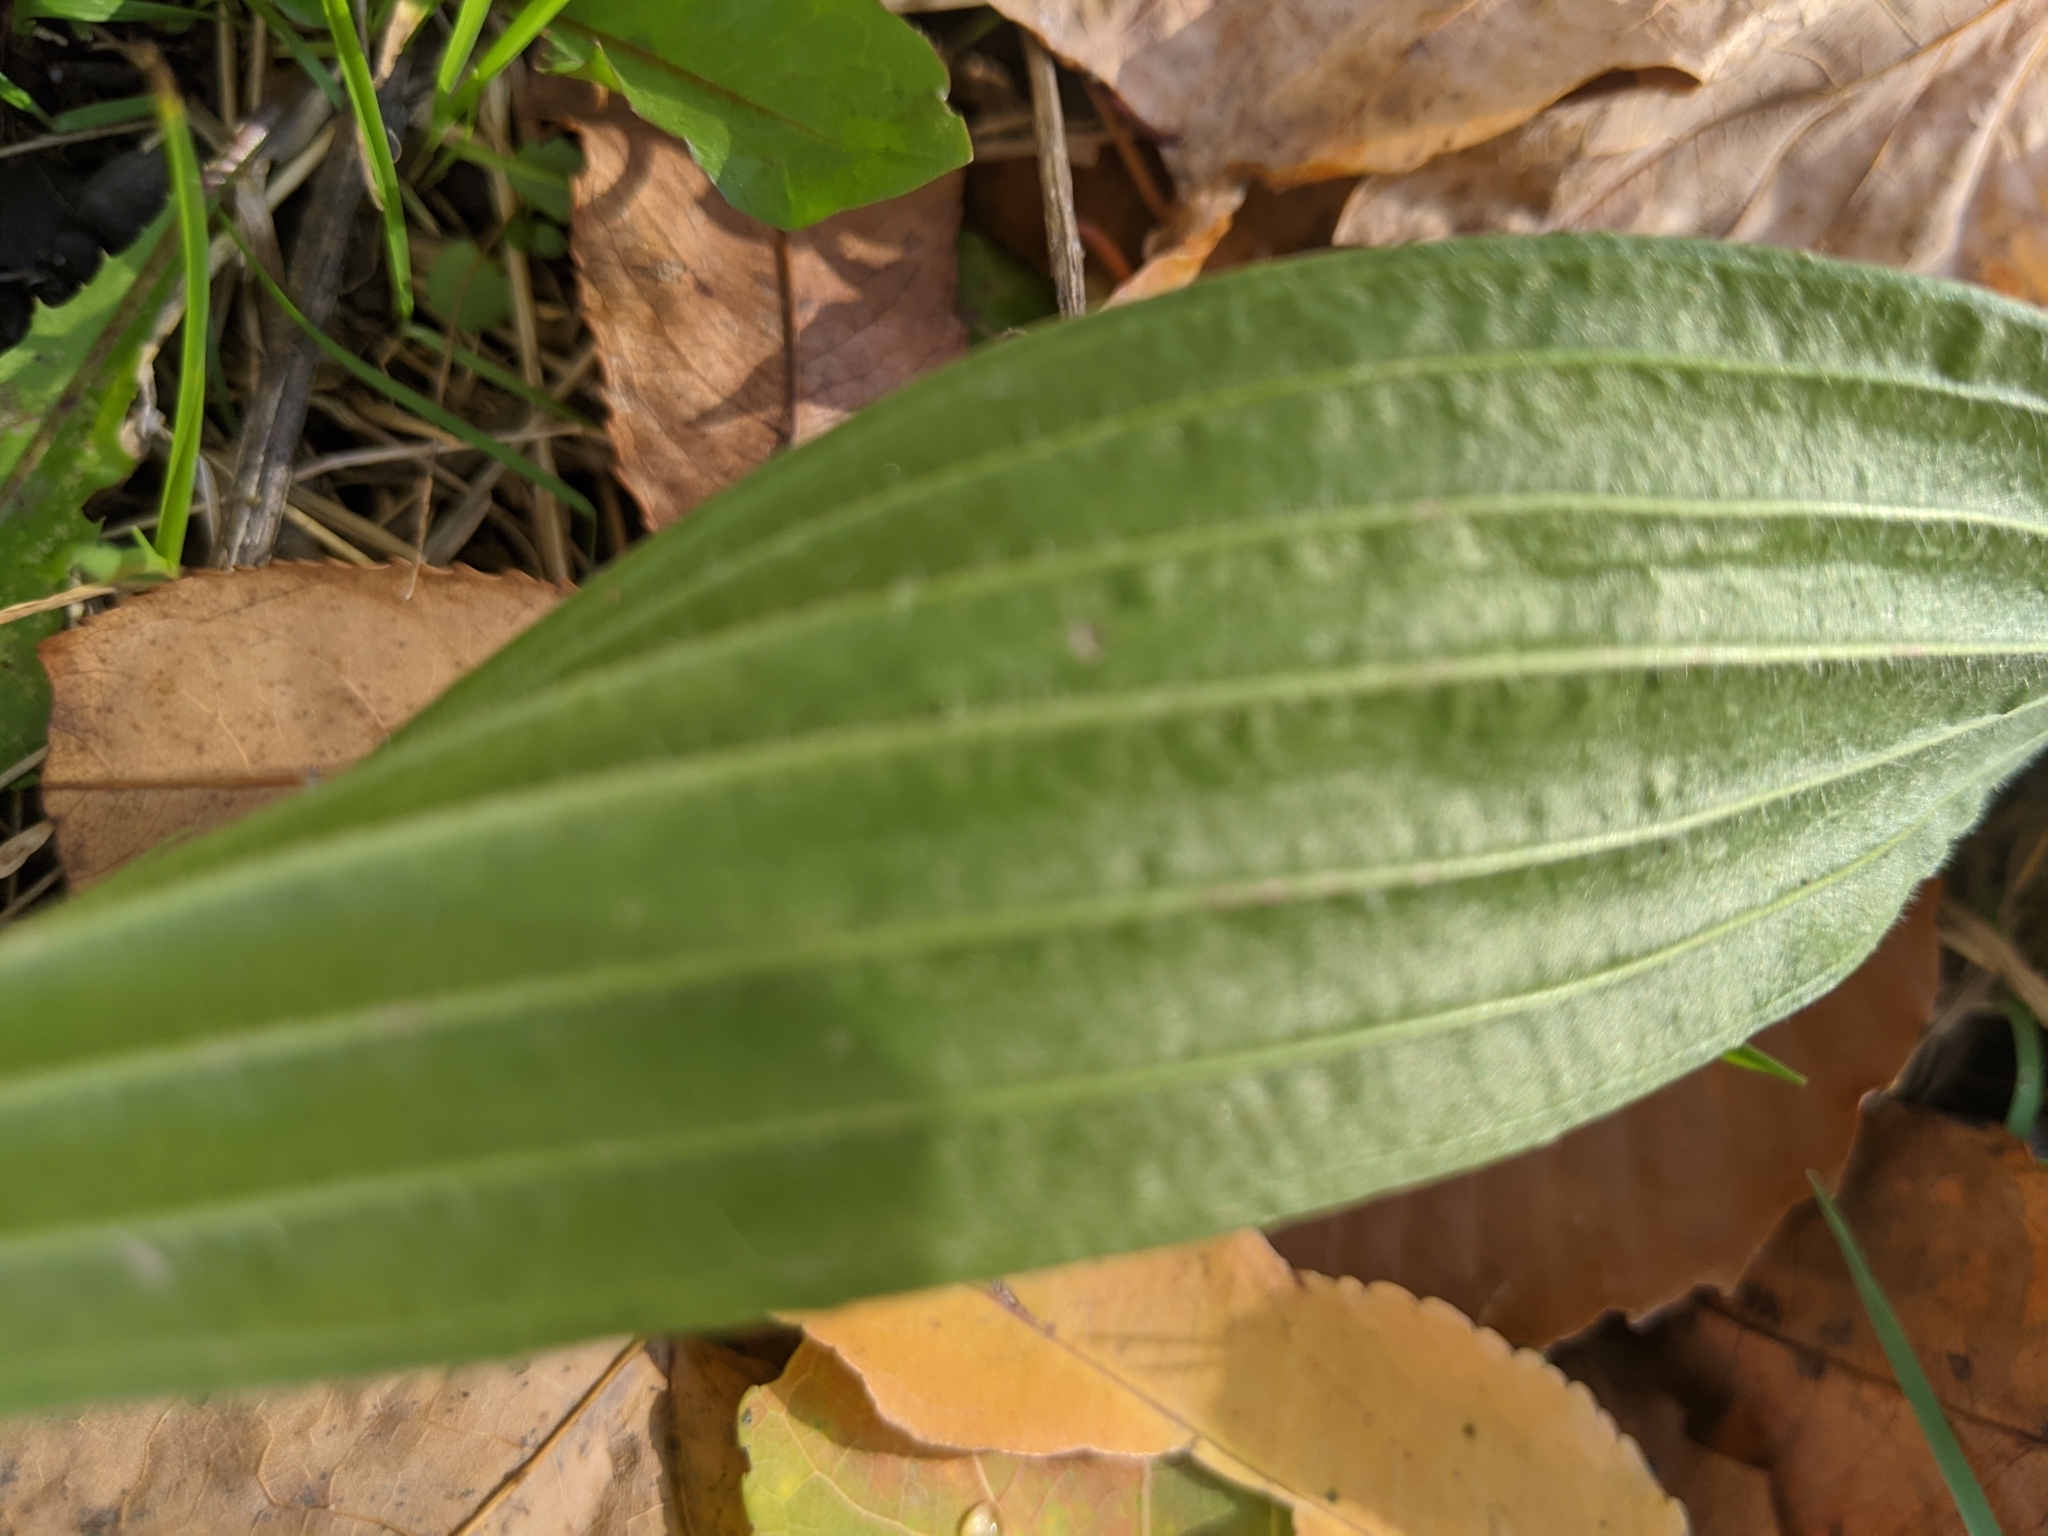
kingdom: Plantae
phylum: Tracheophyta
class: Magnoliopsida
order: Lamiales
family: Plantaginaceae
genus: Plantago
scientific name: Plantago lanceolata
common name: Ribwort plantain
